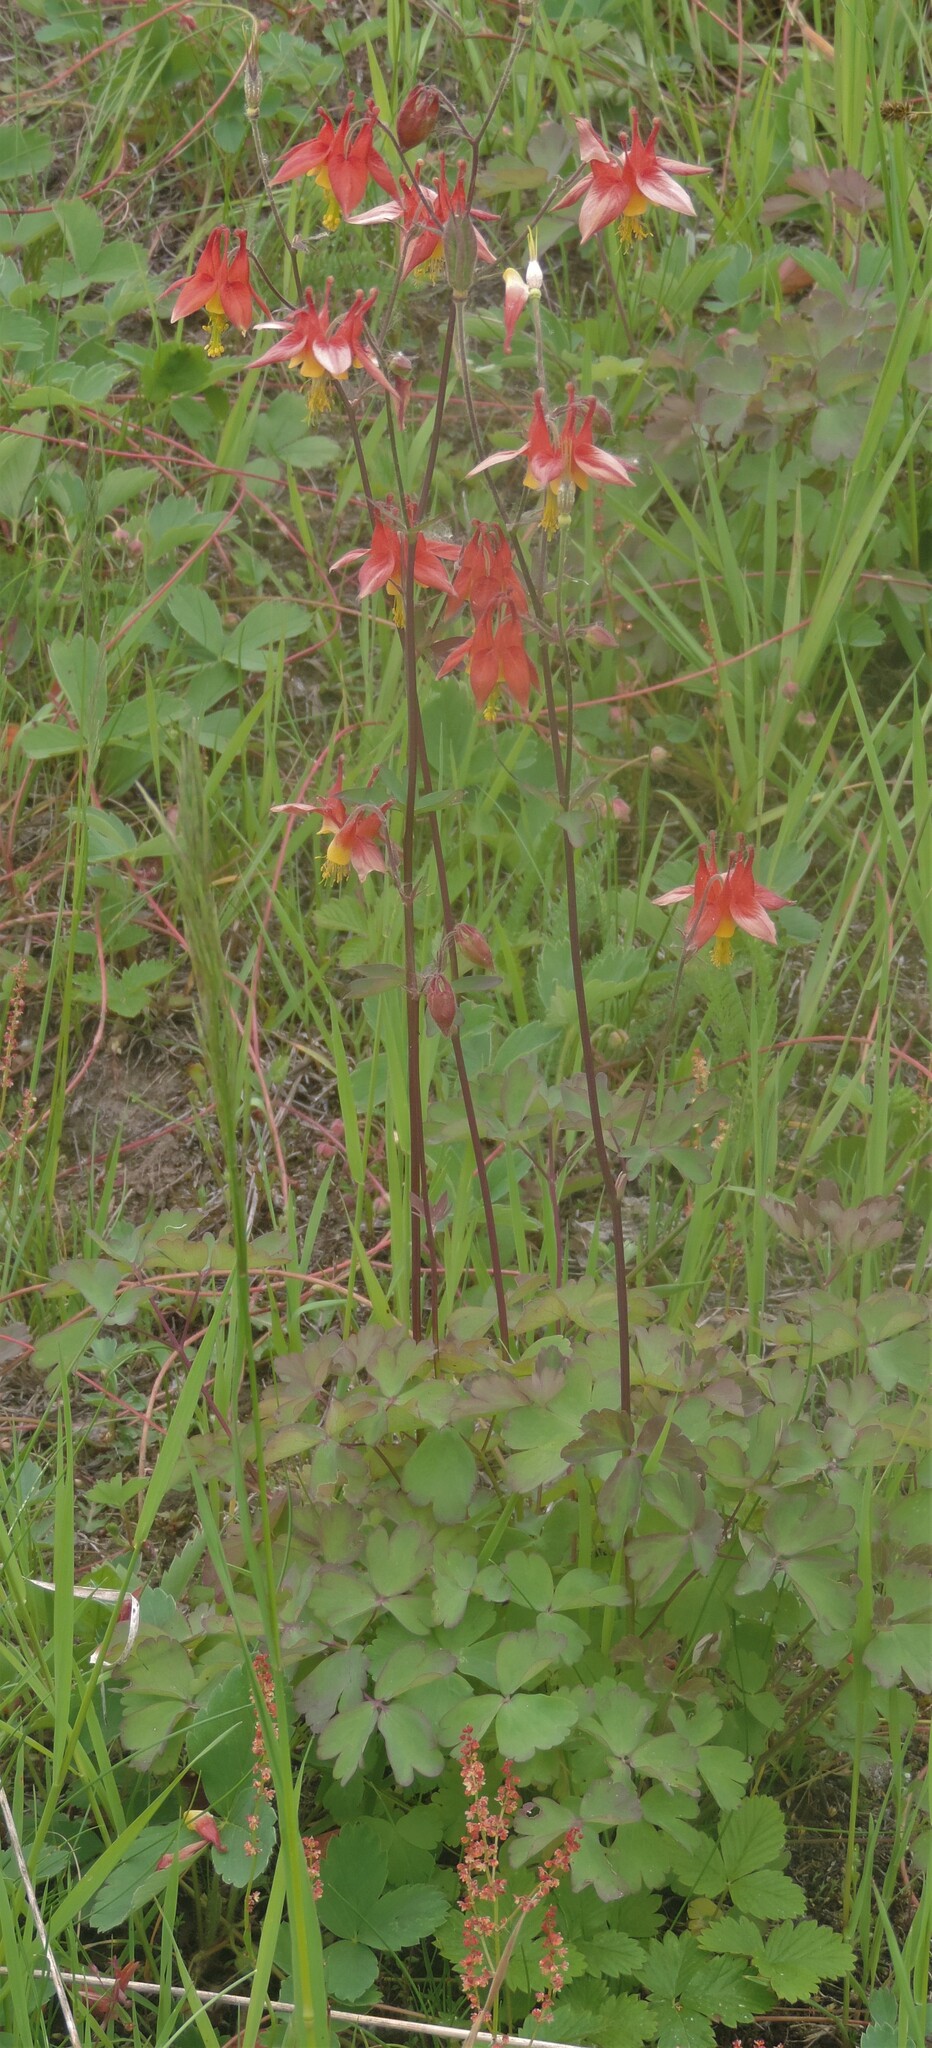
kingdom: Plantae
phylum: Tracheophyta
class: Magnoliopsida
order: Ranunculales
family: Ranunculaceae
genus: Aquilegia
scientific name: Aquilegia formosa
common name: Sitka columbine
